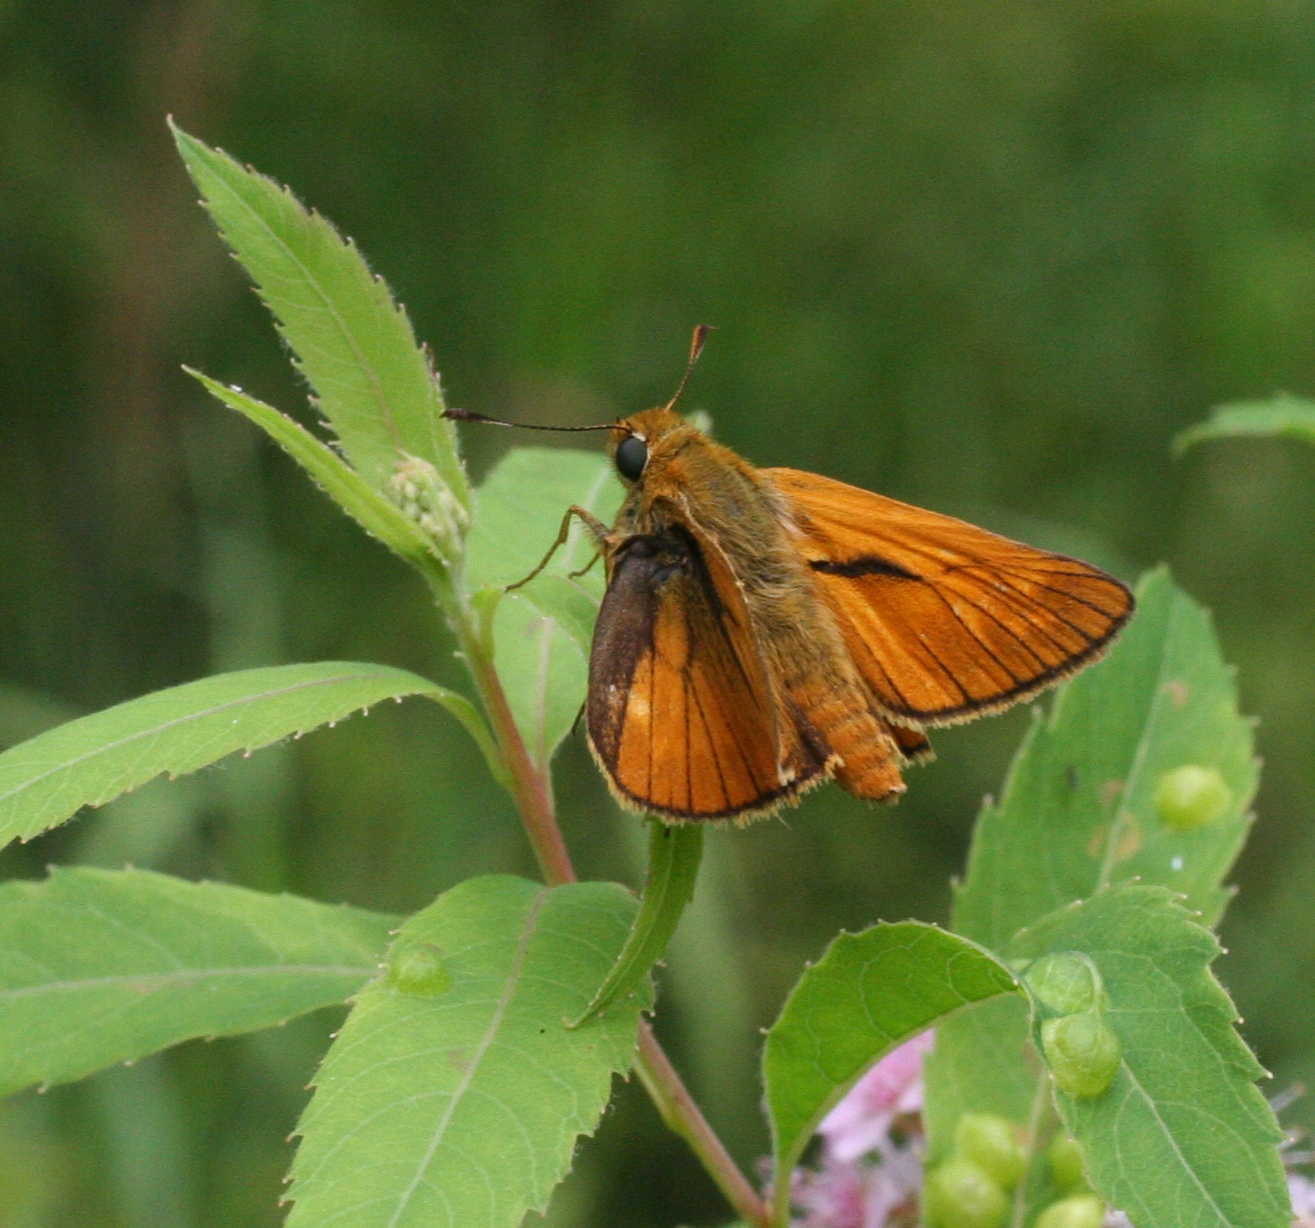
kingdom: Animalia
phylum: Arthropoda
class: Insecta
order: Lepidoptera
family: Hesperiidae
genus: Ochlodes
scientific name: Ochlodes venata
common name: Large skipper
